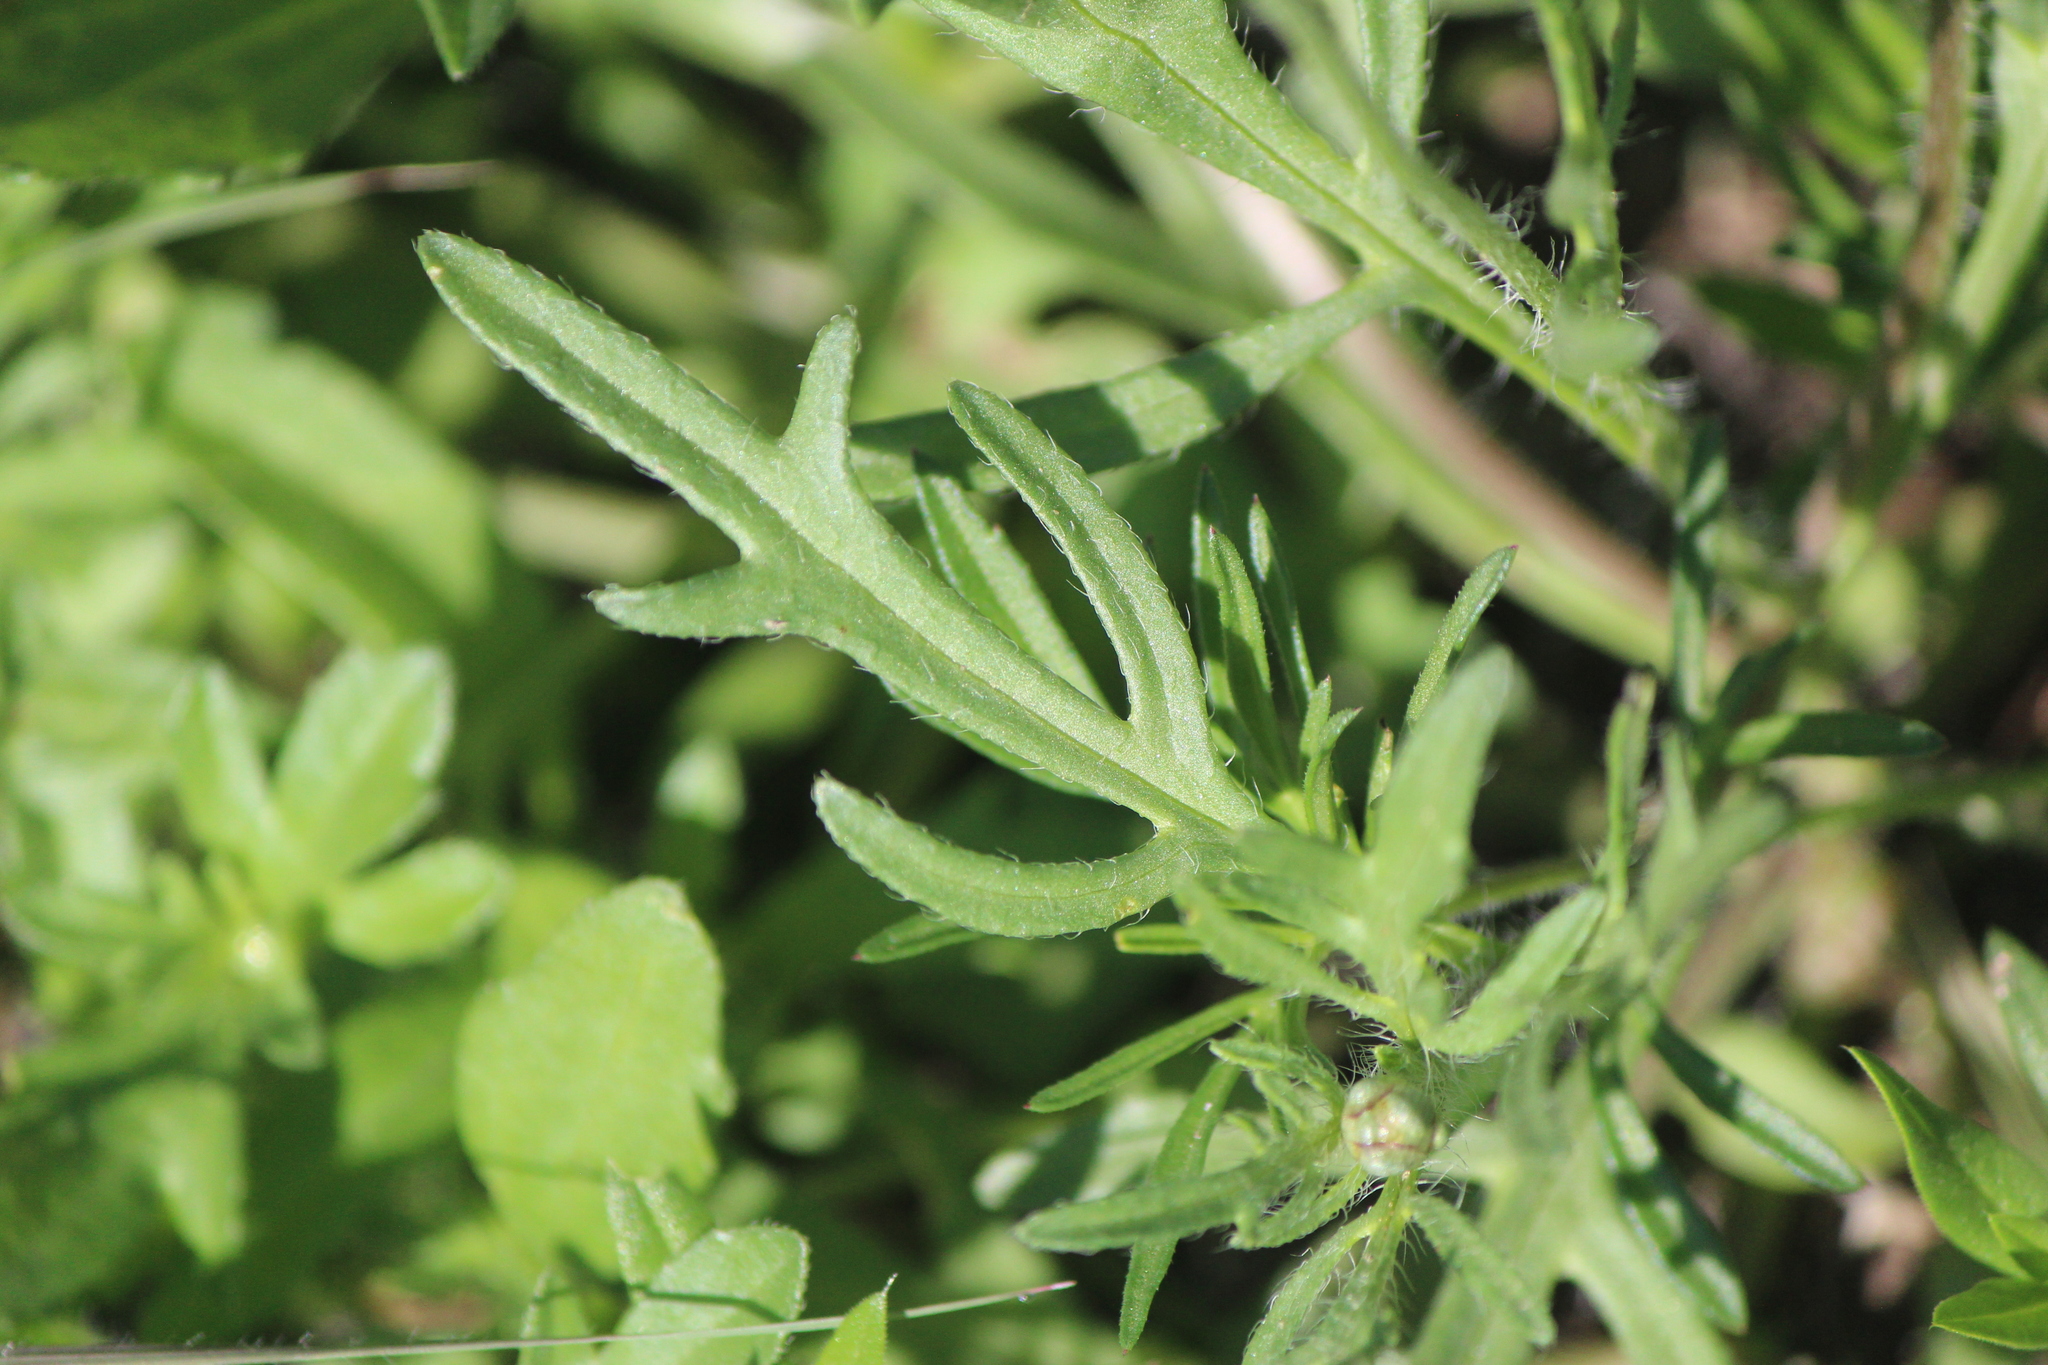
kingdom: Plantae
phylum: Tracheophyta
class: Magnoliopsida
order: Asterales
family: Asteraceae
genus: Tridax
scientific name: Tridax rosea
